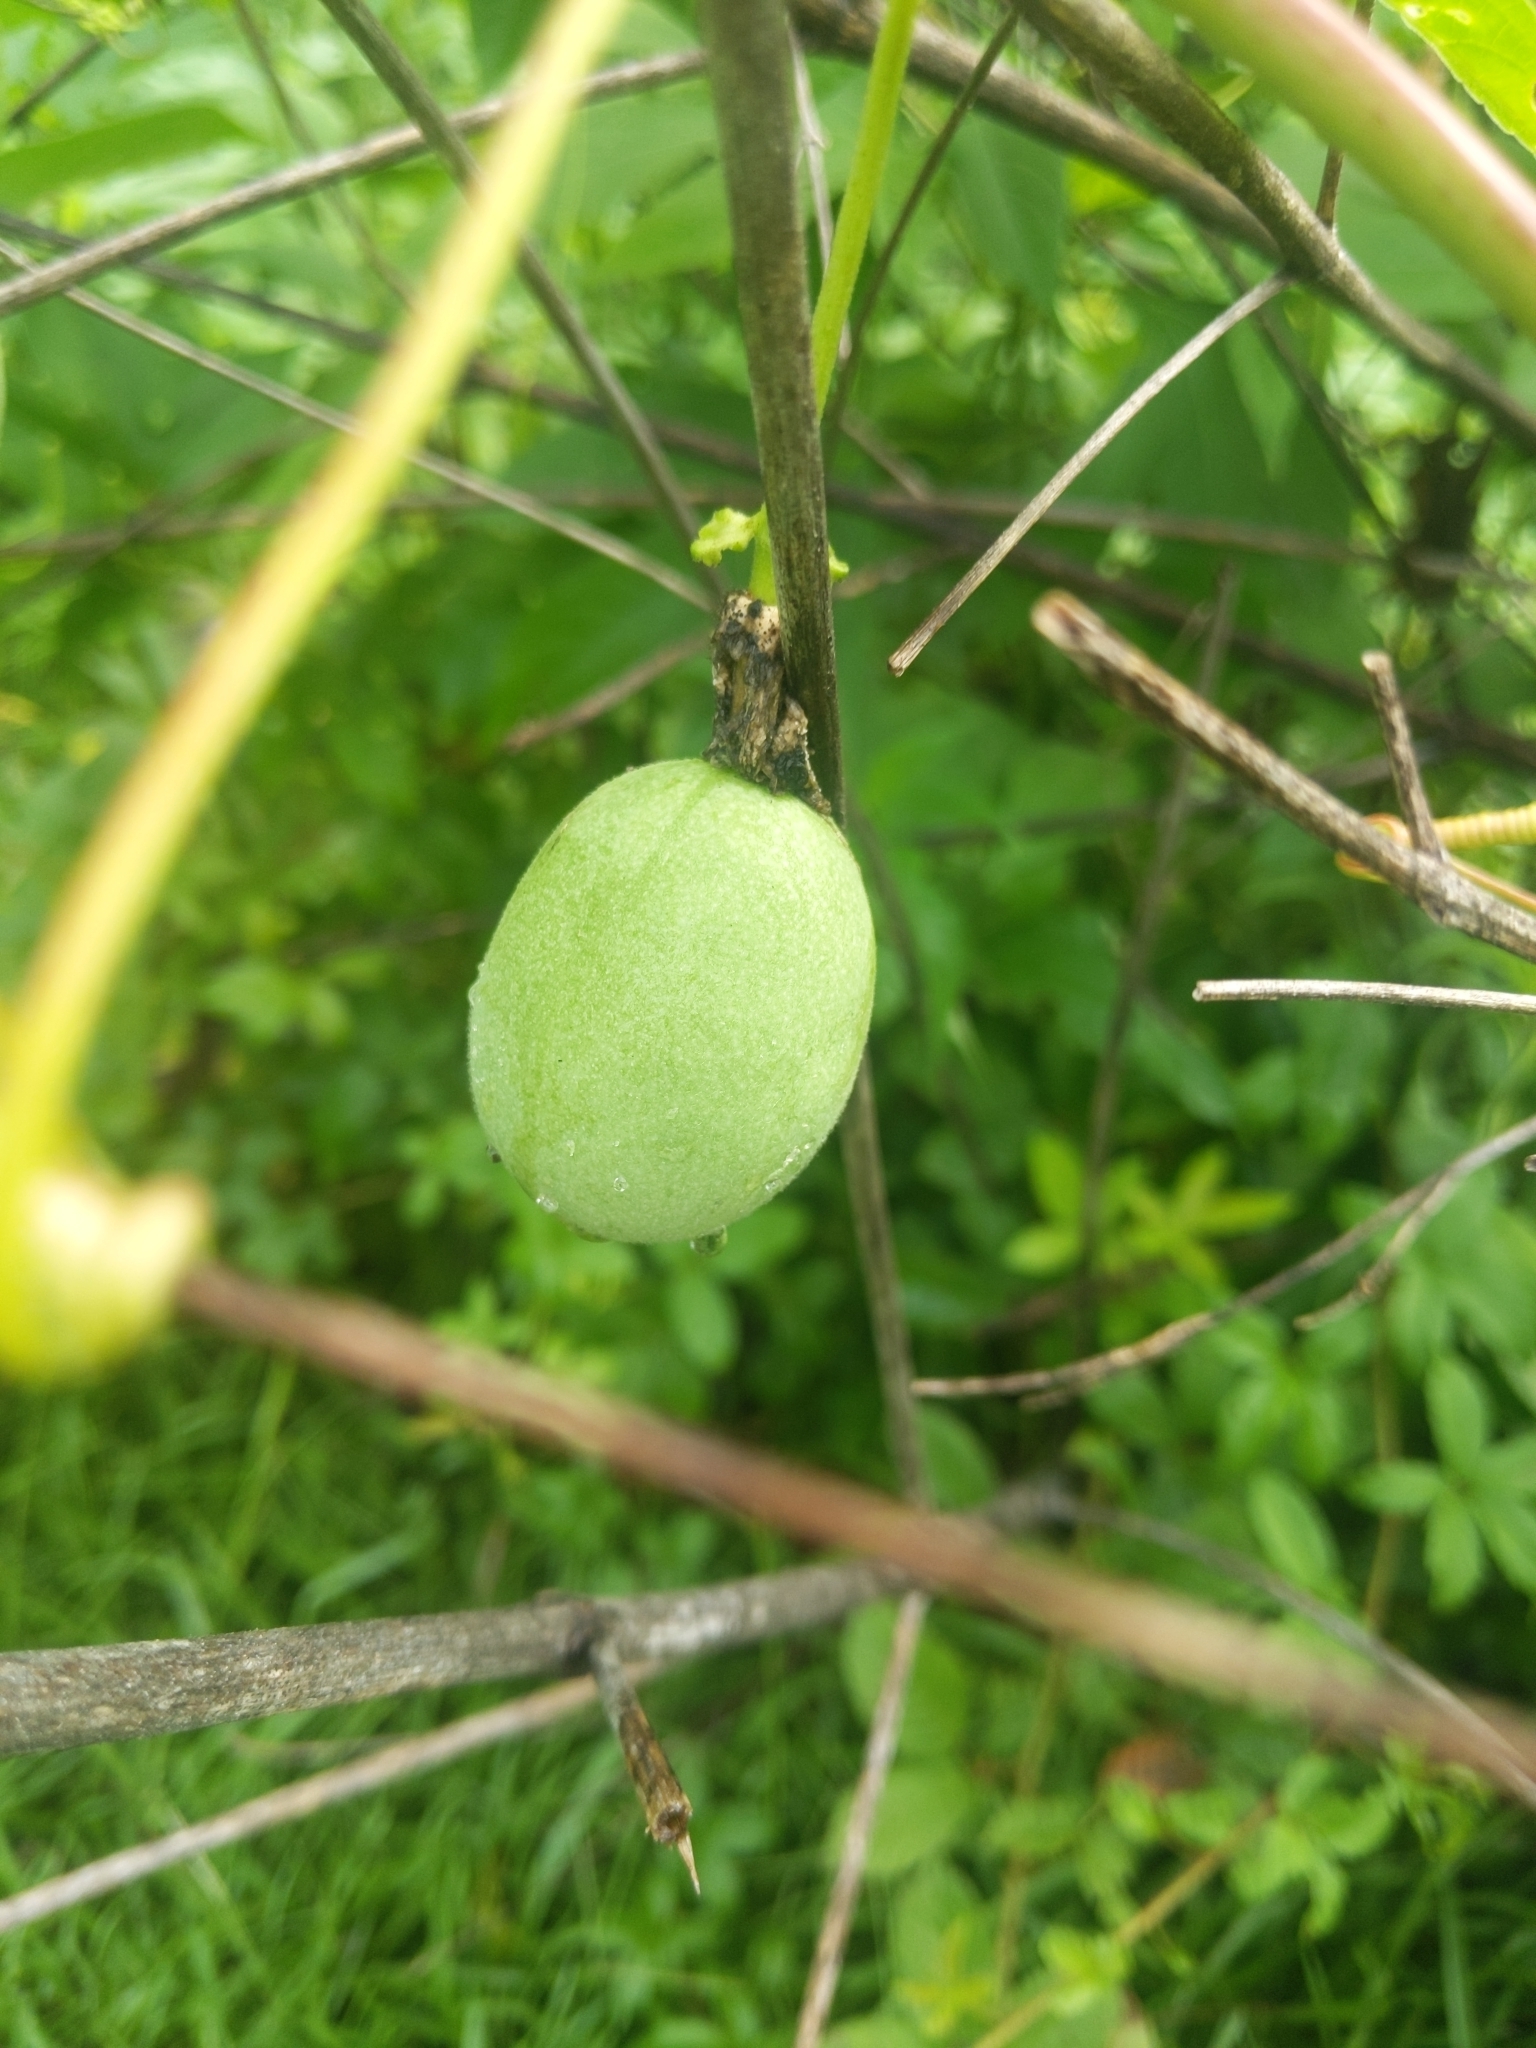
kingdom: Plantae
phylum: Tracheophyta
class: Magnoliopsida
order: Malpighiales
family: Passifloraceae
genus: Passiflora
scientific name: Passiflora incarnata
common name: Apricot-vine
